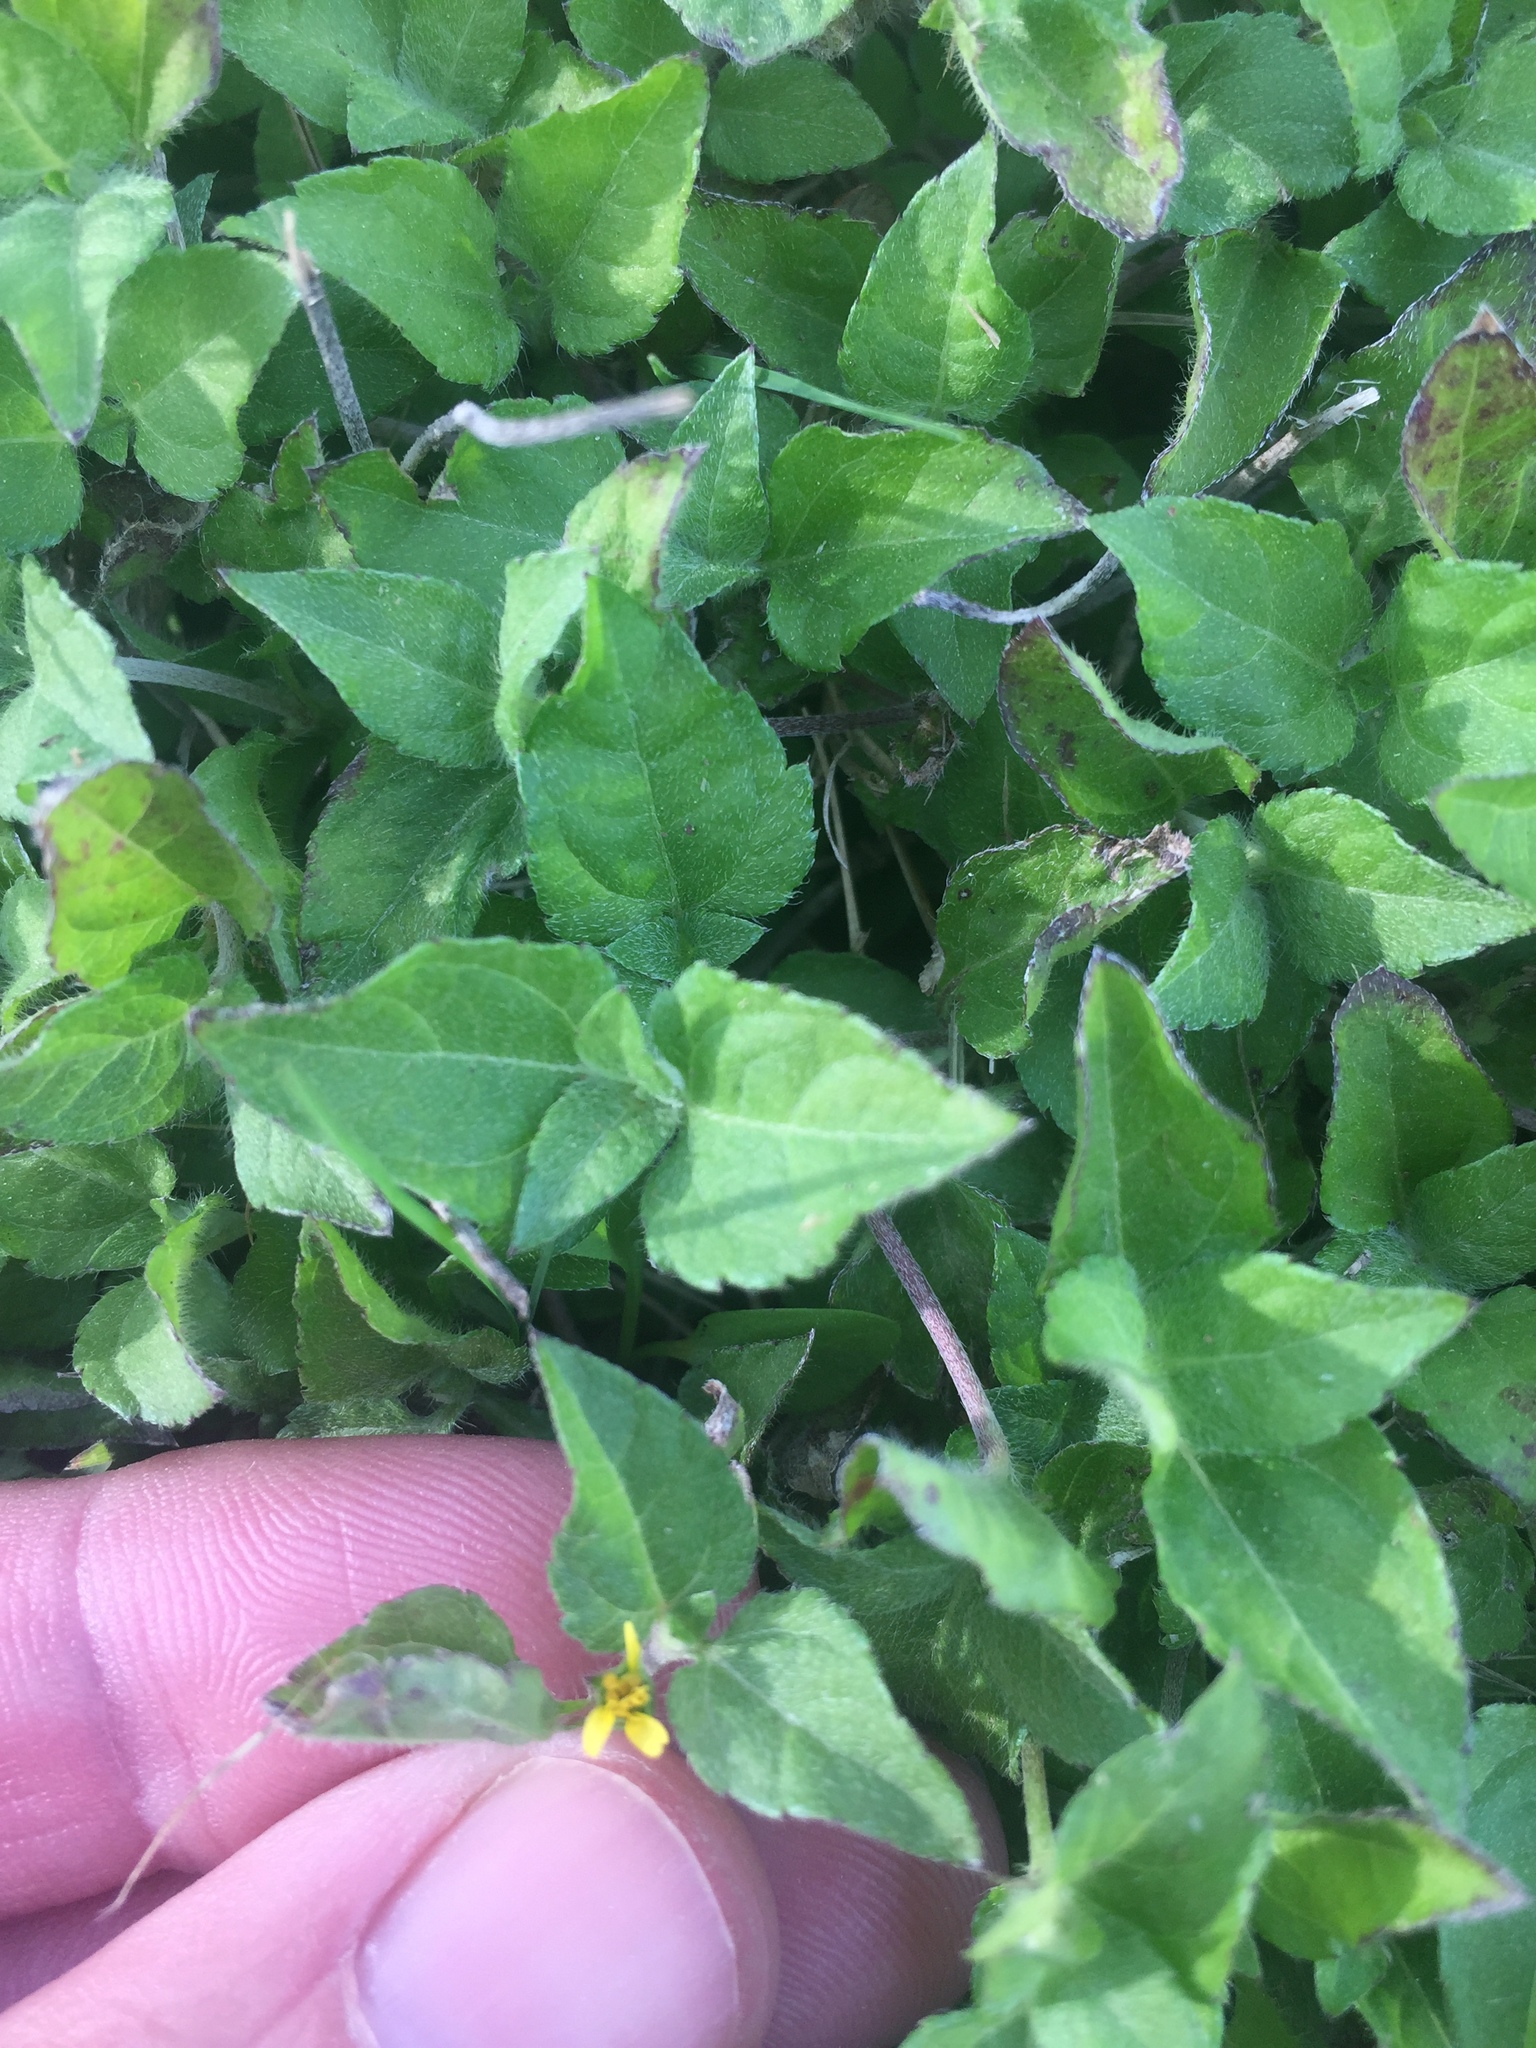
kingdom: Plantae
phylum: Tracheophyta
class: Magnoliopsida
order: Asterales
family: Asteraceae
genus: Calyptocarpus
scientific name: Calyptocarpus vialis
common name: Straggler daisy
